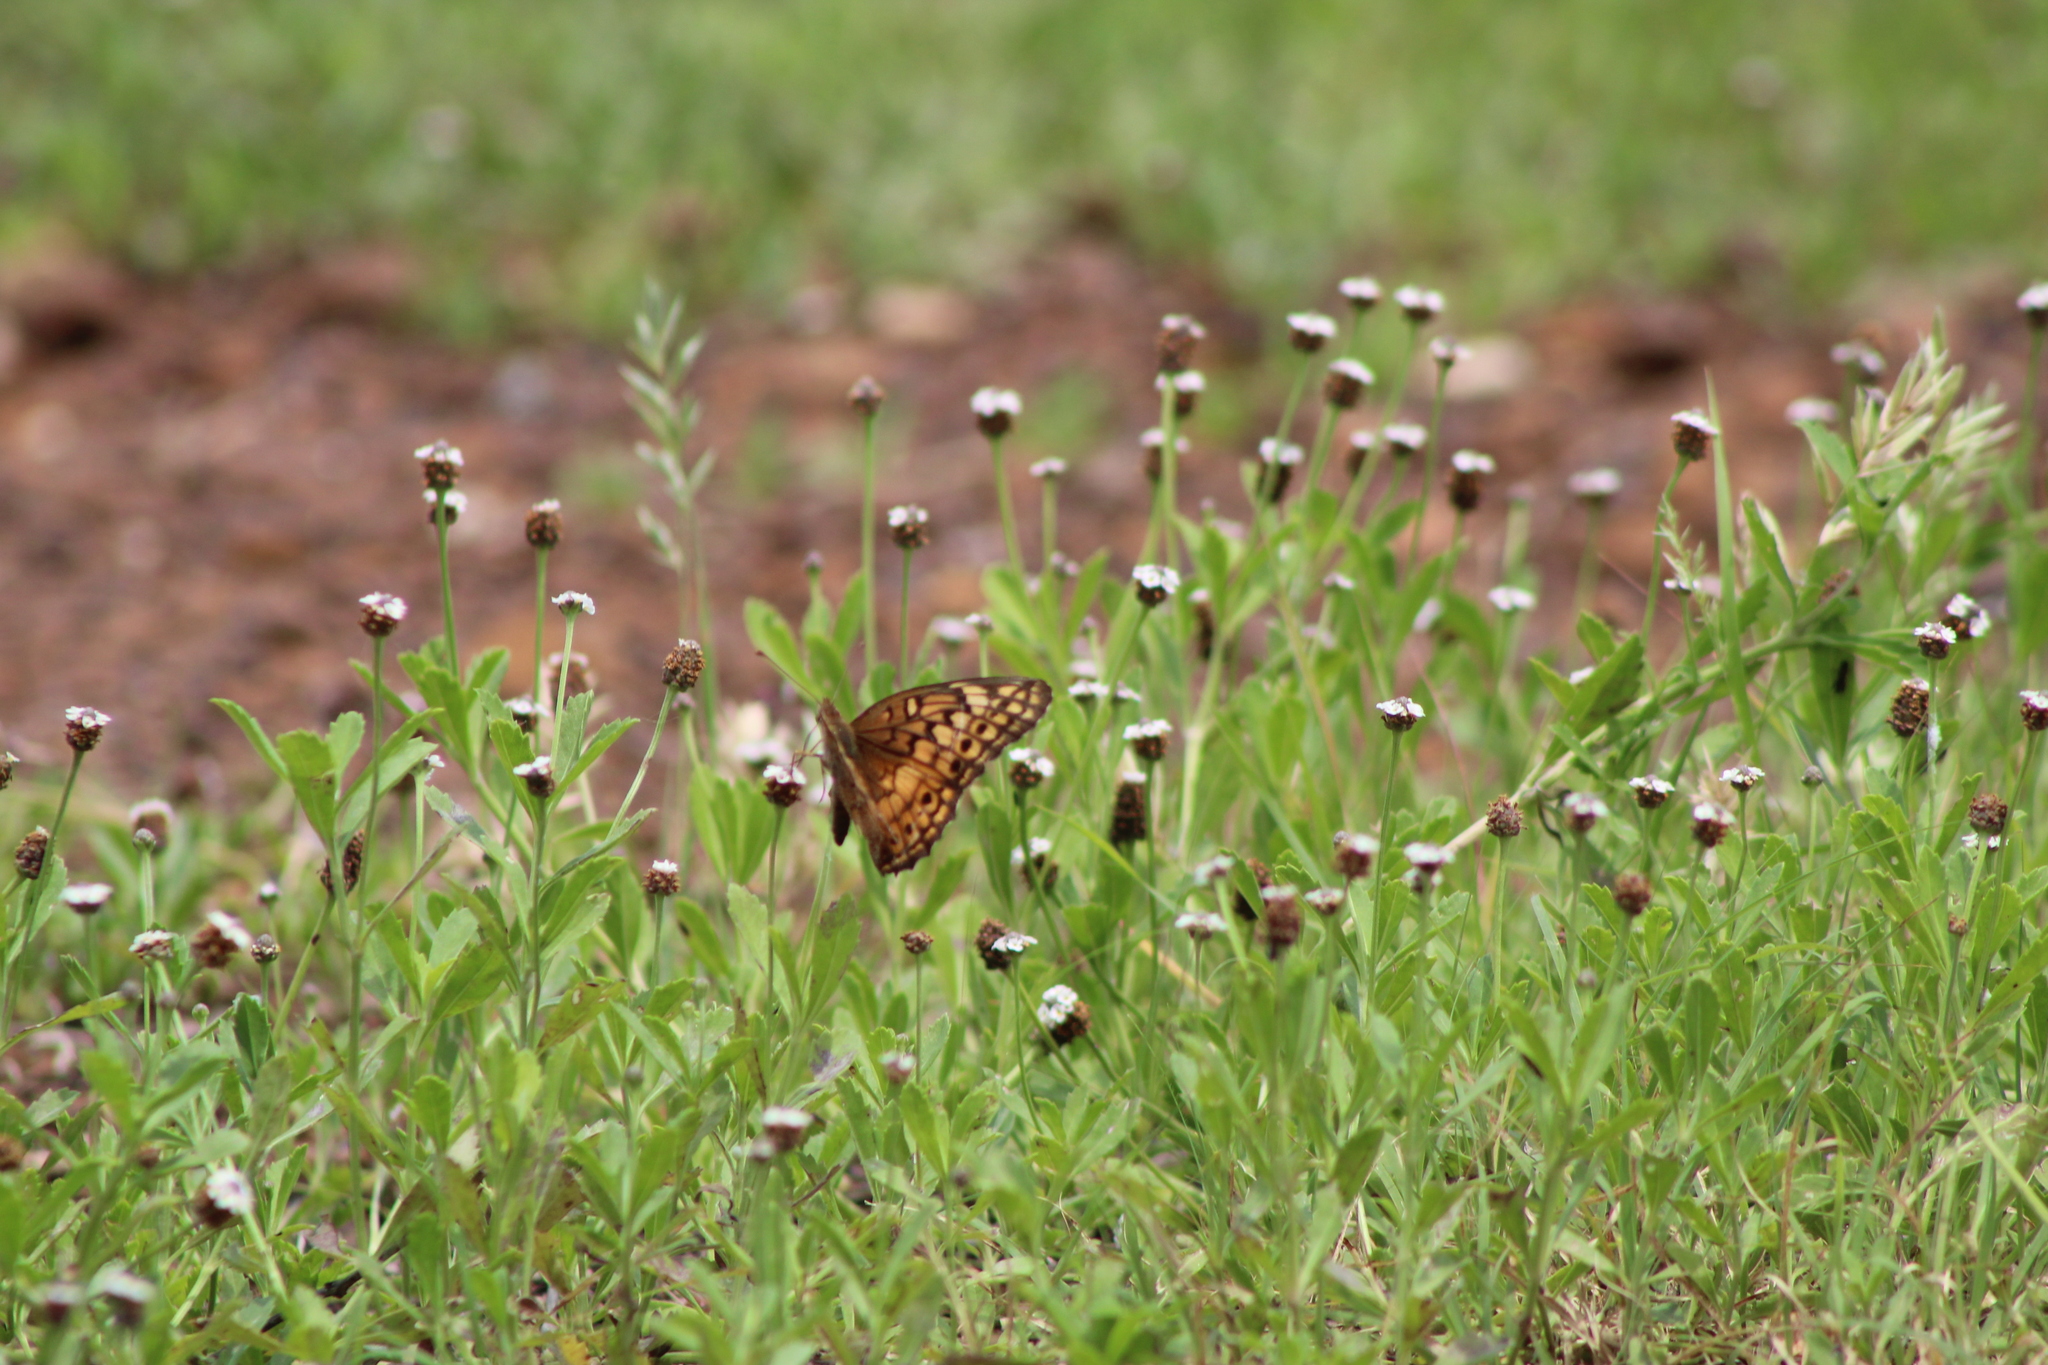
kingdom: Animalia
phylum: Arthropoda
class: Insecta
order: Lepidoptera
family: Nymphalidae
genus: Euptoieta
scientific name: Euptoieta claudia
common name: Variegated fritillary
